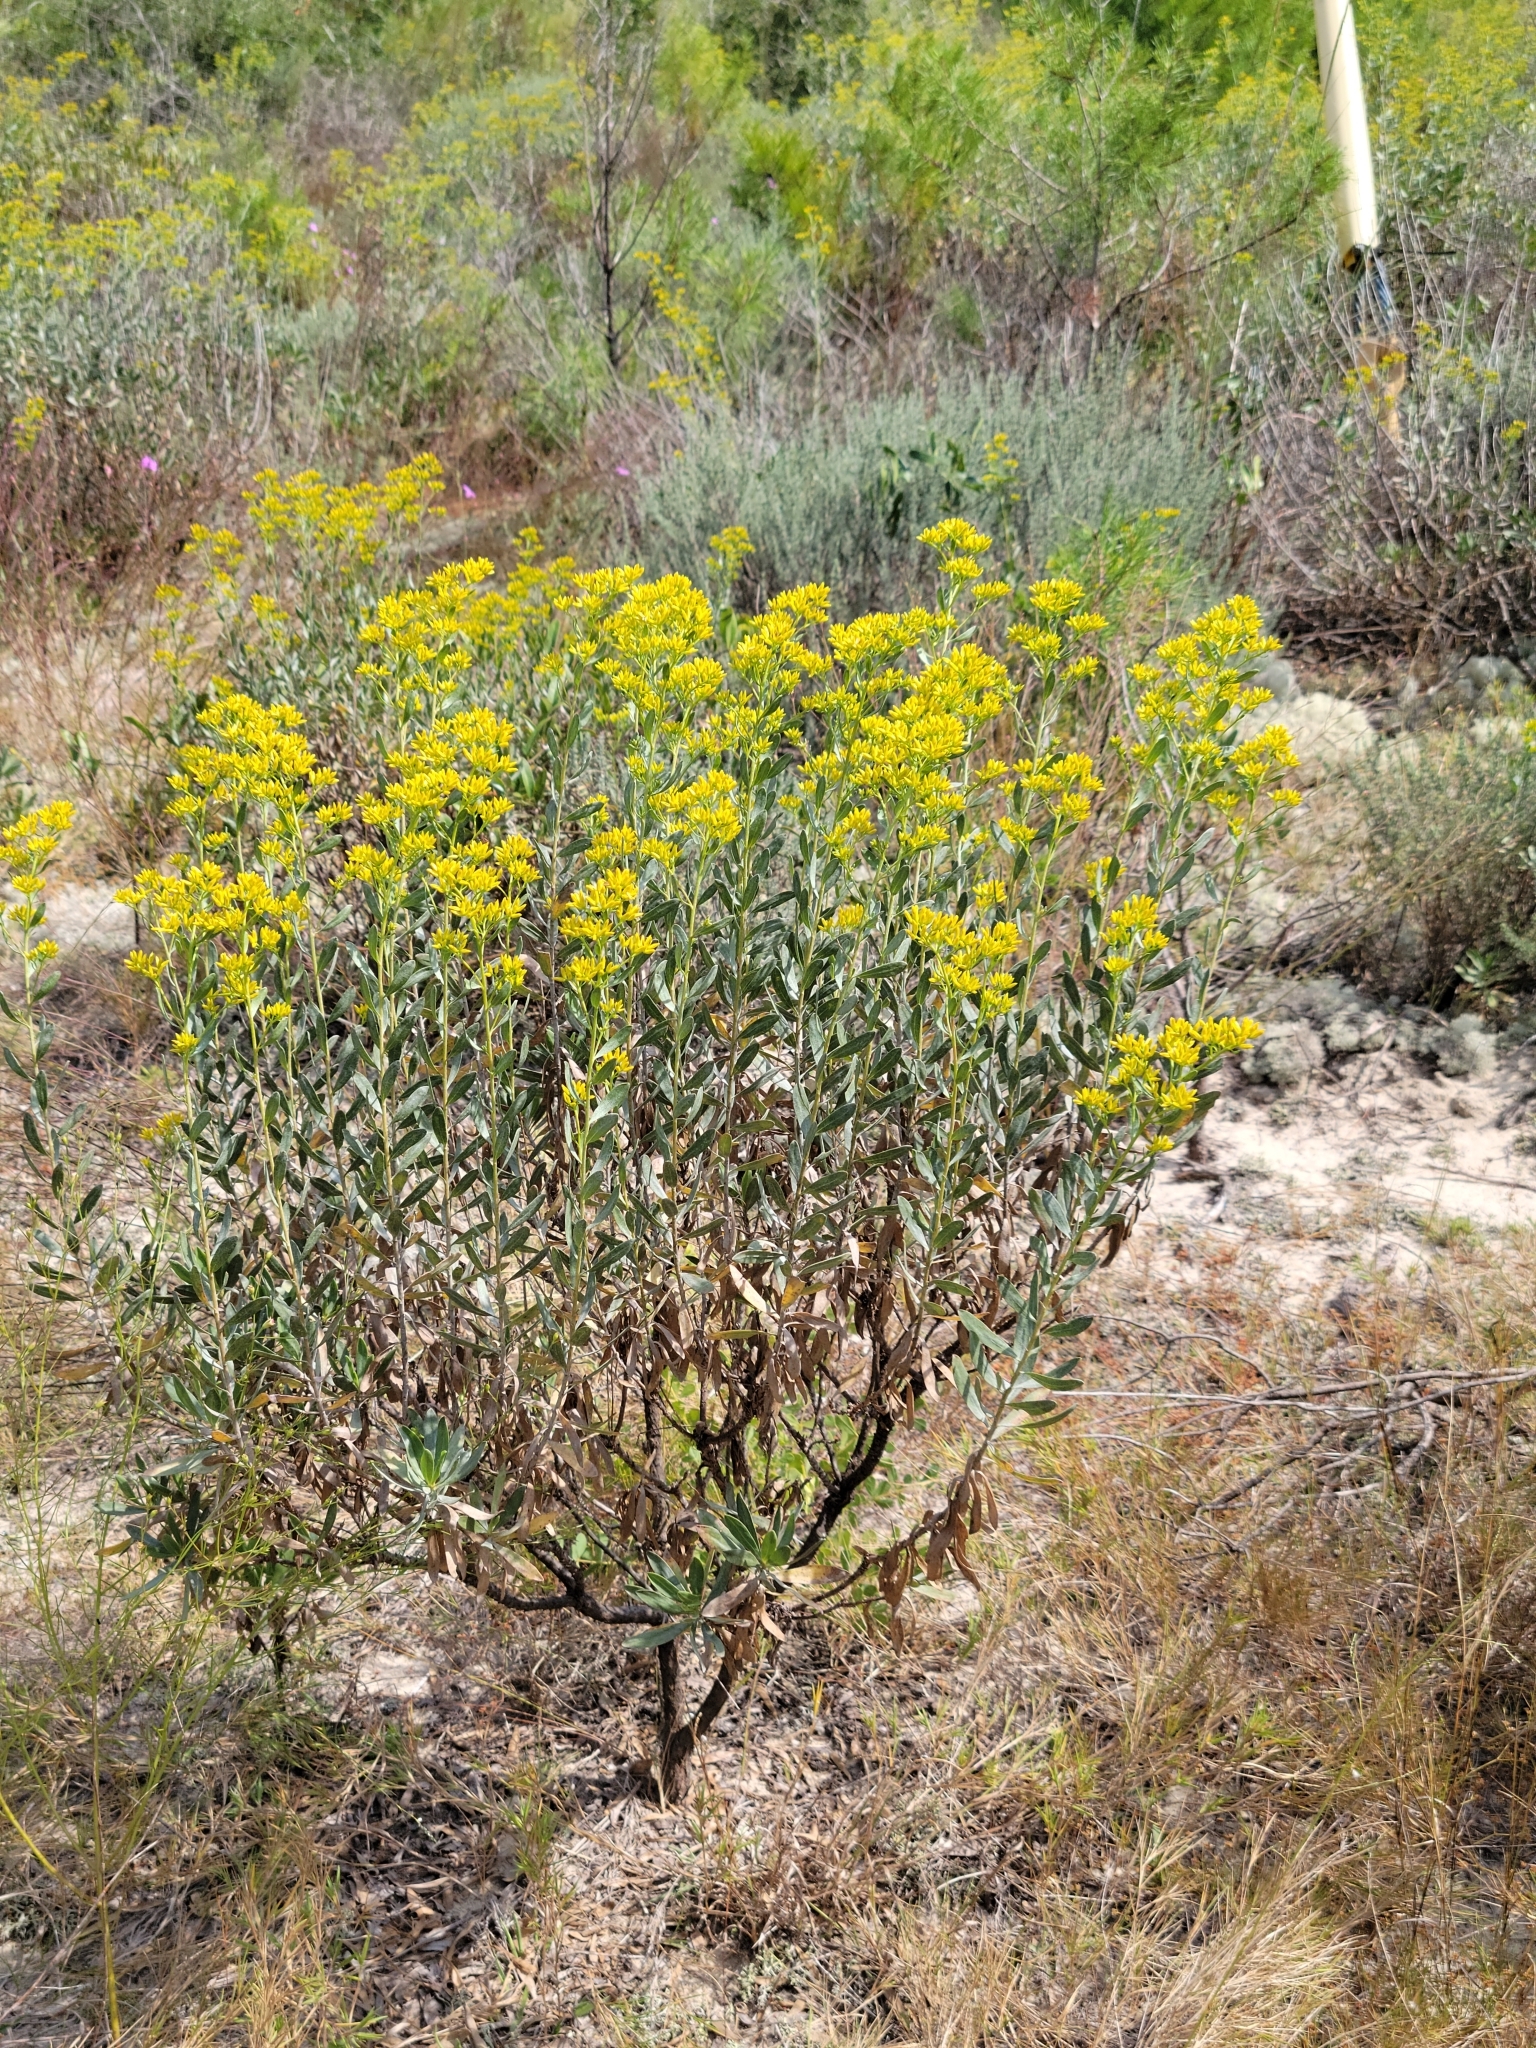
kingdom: Plantae
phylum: Tracheophyta
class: Magnoliopsida
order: Asterales
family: Asteraceae
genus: Chrysoma
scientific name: Chrysoma pauciflosculosa
